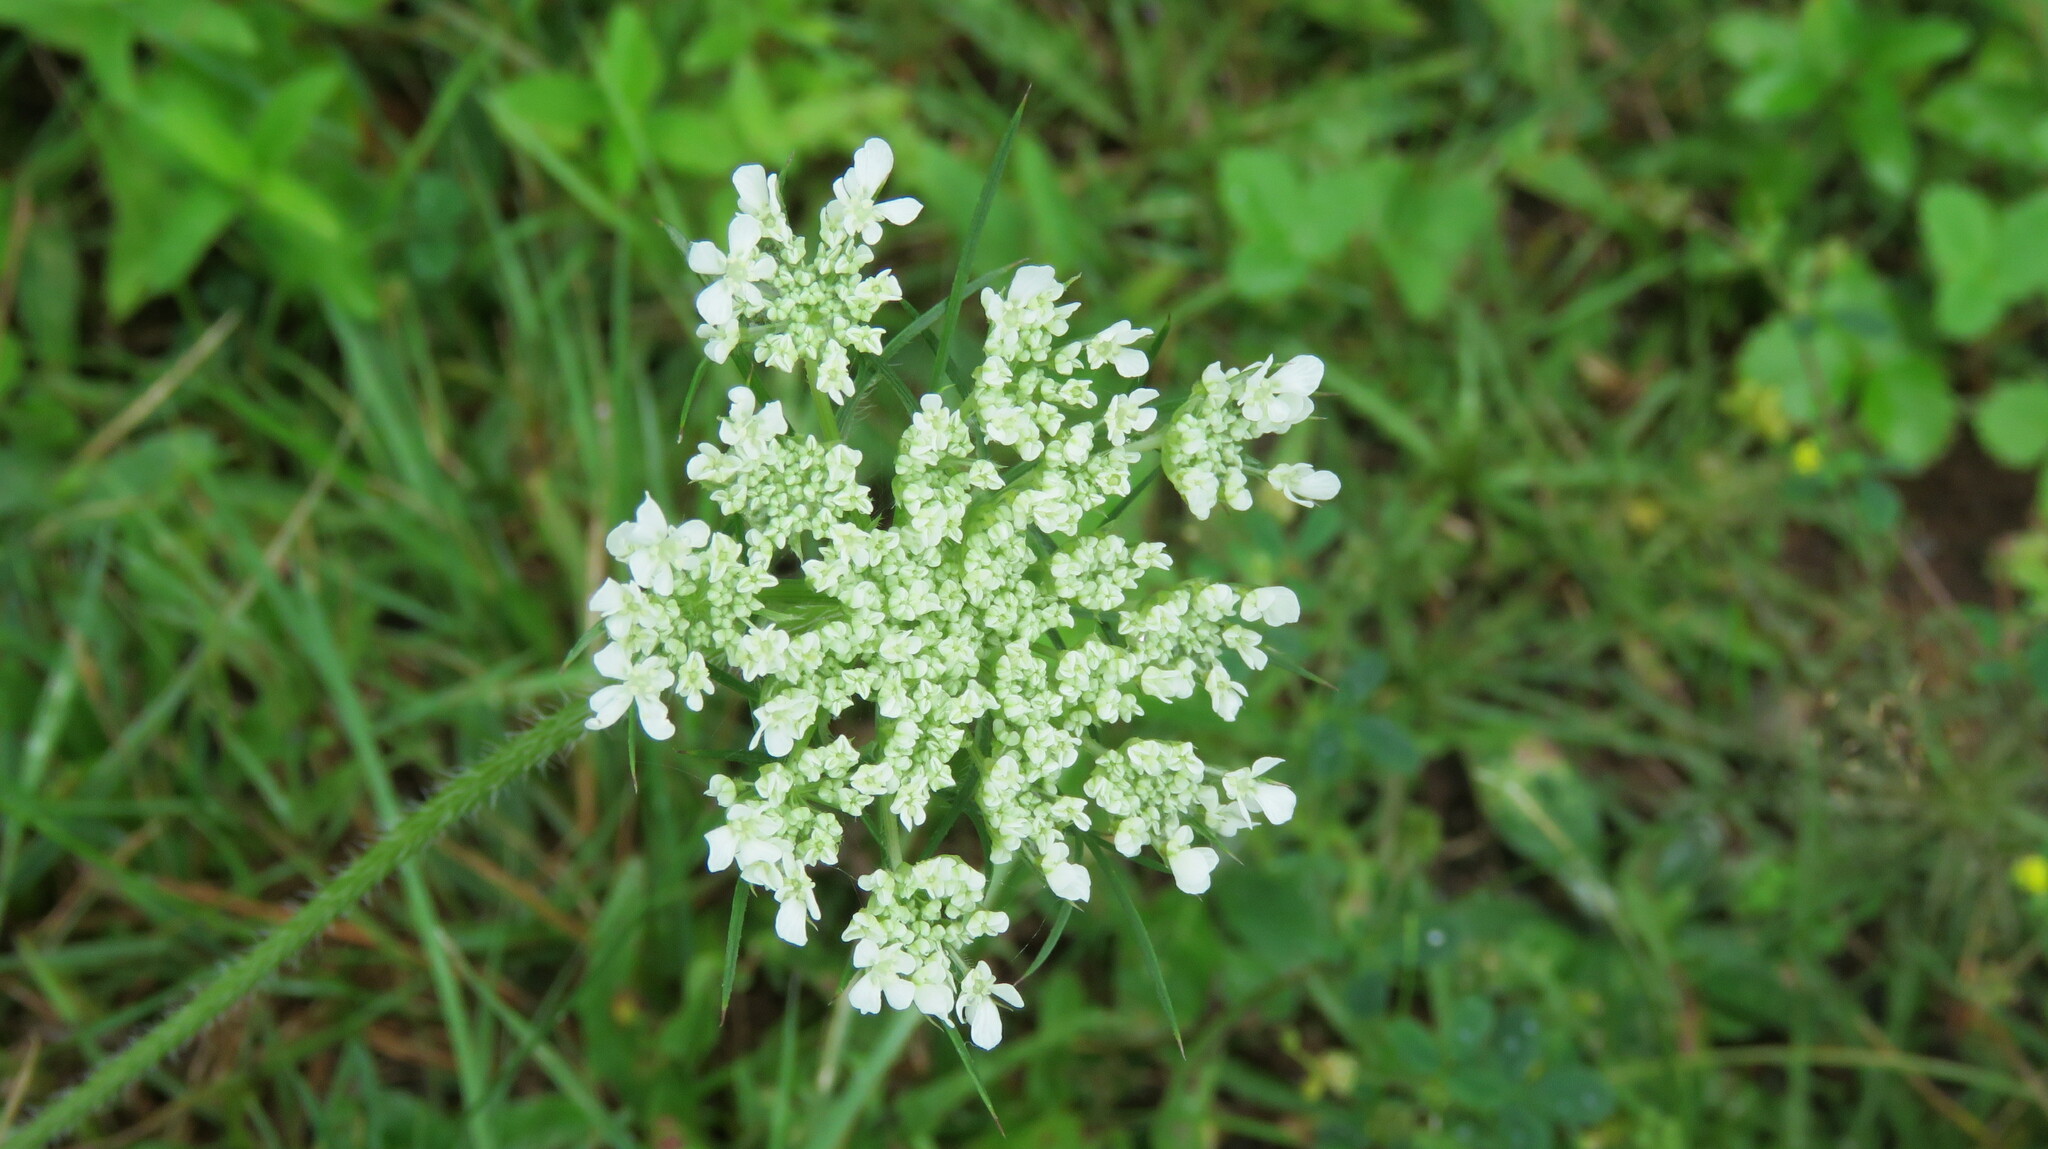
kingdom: Plantae
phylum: Tracheophyta
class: Magnoliopsida
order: Apiales
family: Apiaceae
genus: Daucus
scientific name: Daucus carota
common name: Wild carrot
